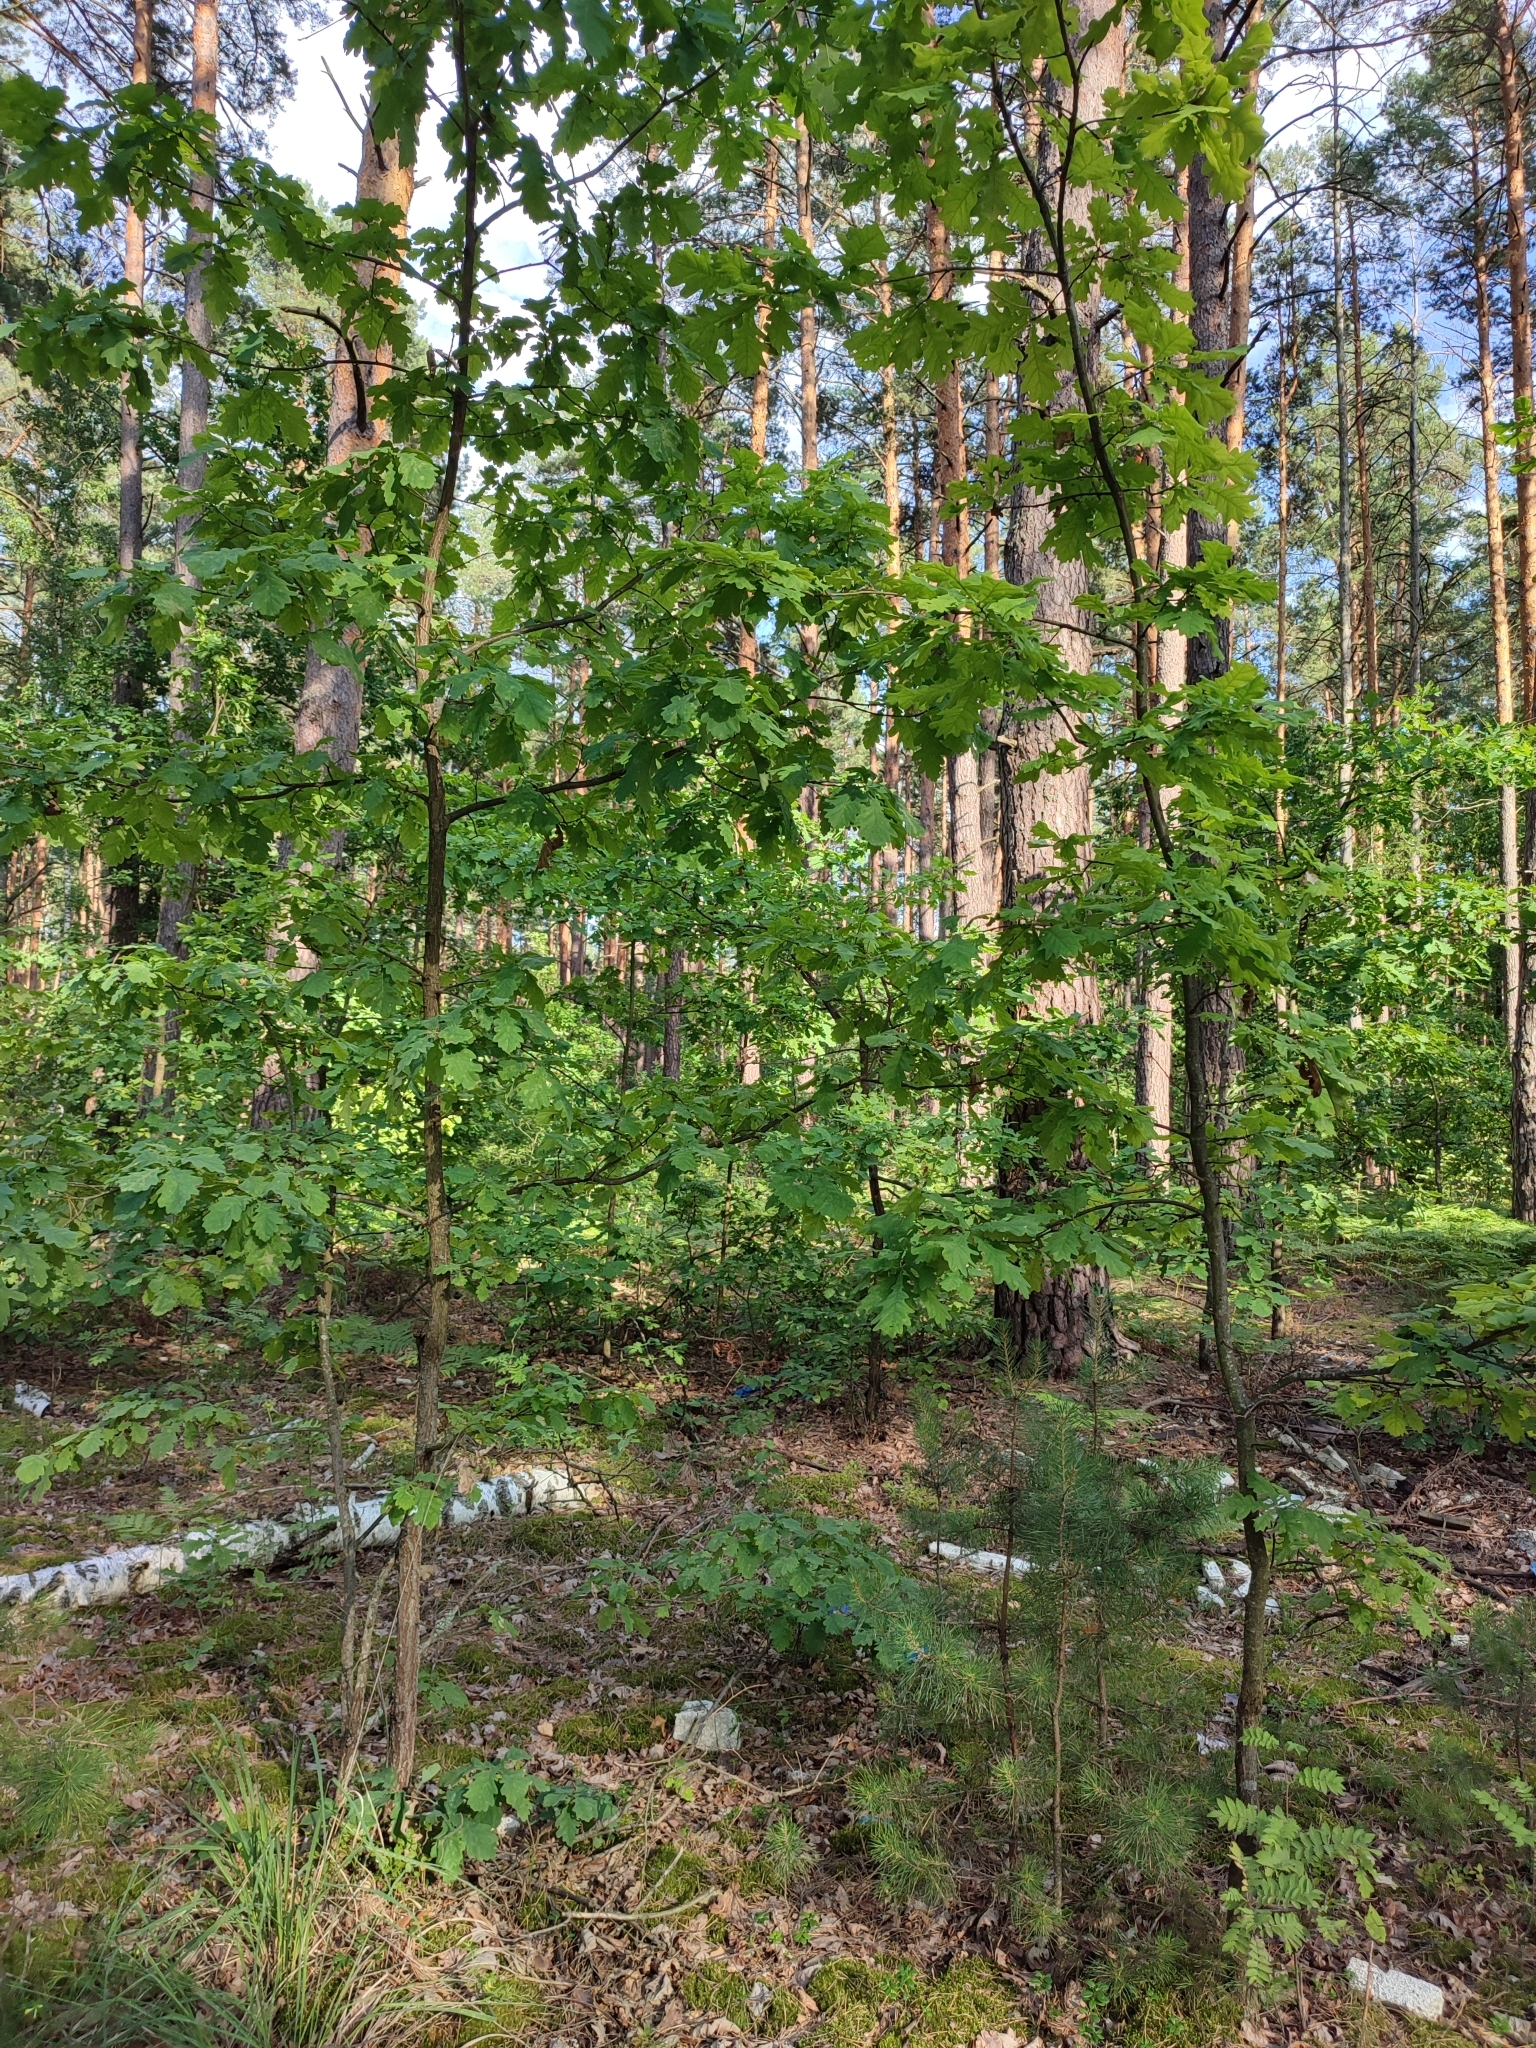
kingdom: Plantae
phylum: Tracheophyta
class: Magnoliopsida
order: Fagales
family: Fagaceae
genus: Quercus
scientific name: Quercus robur
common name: Pedunculate oak
